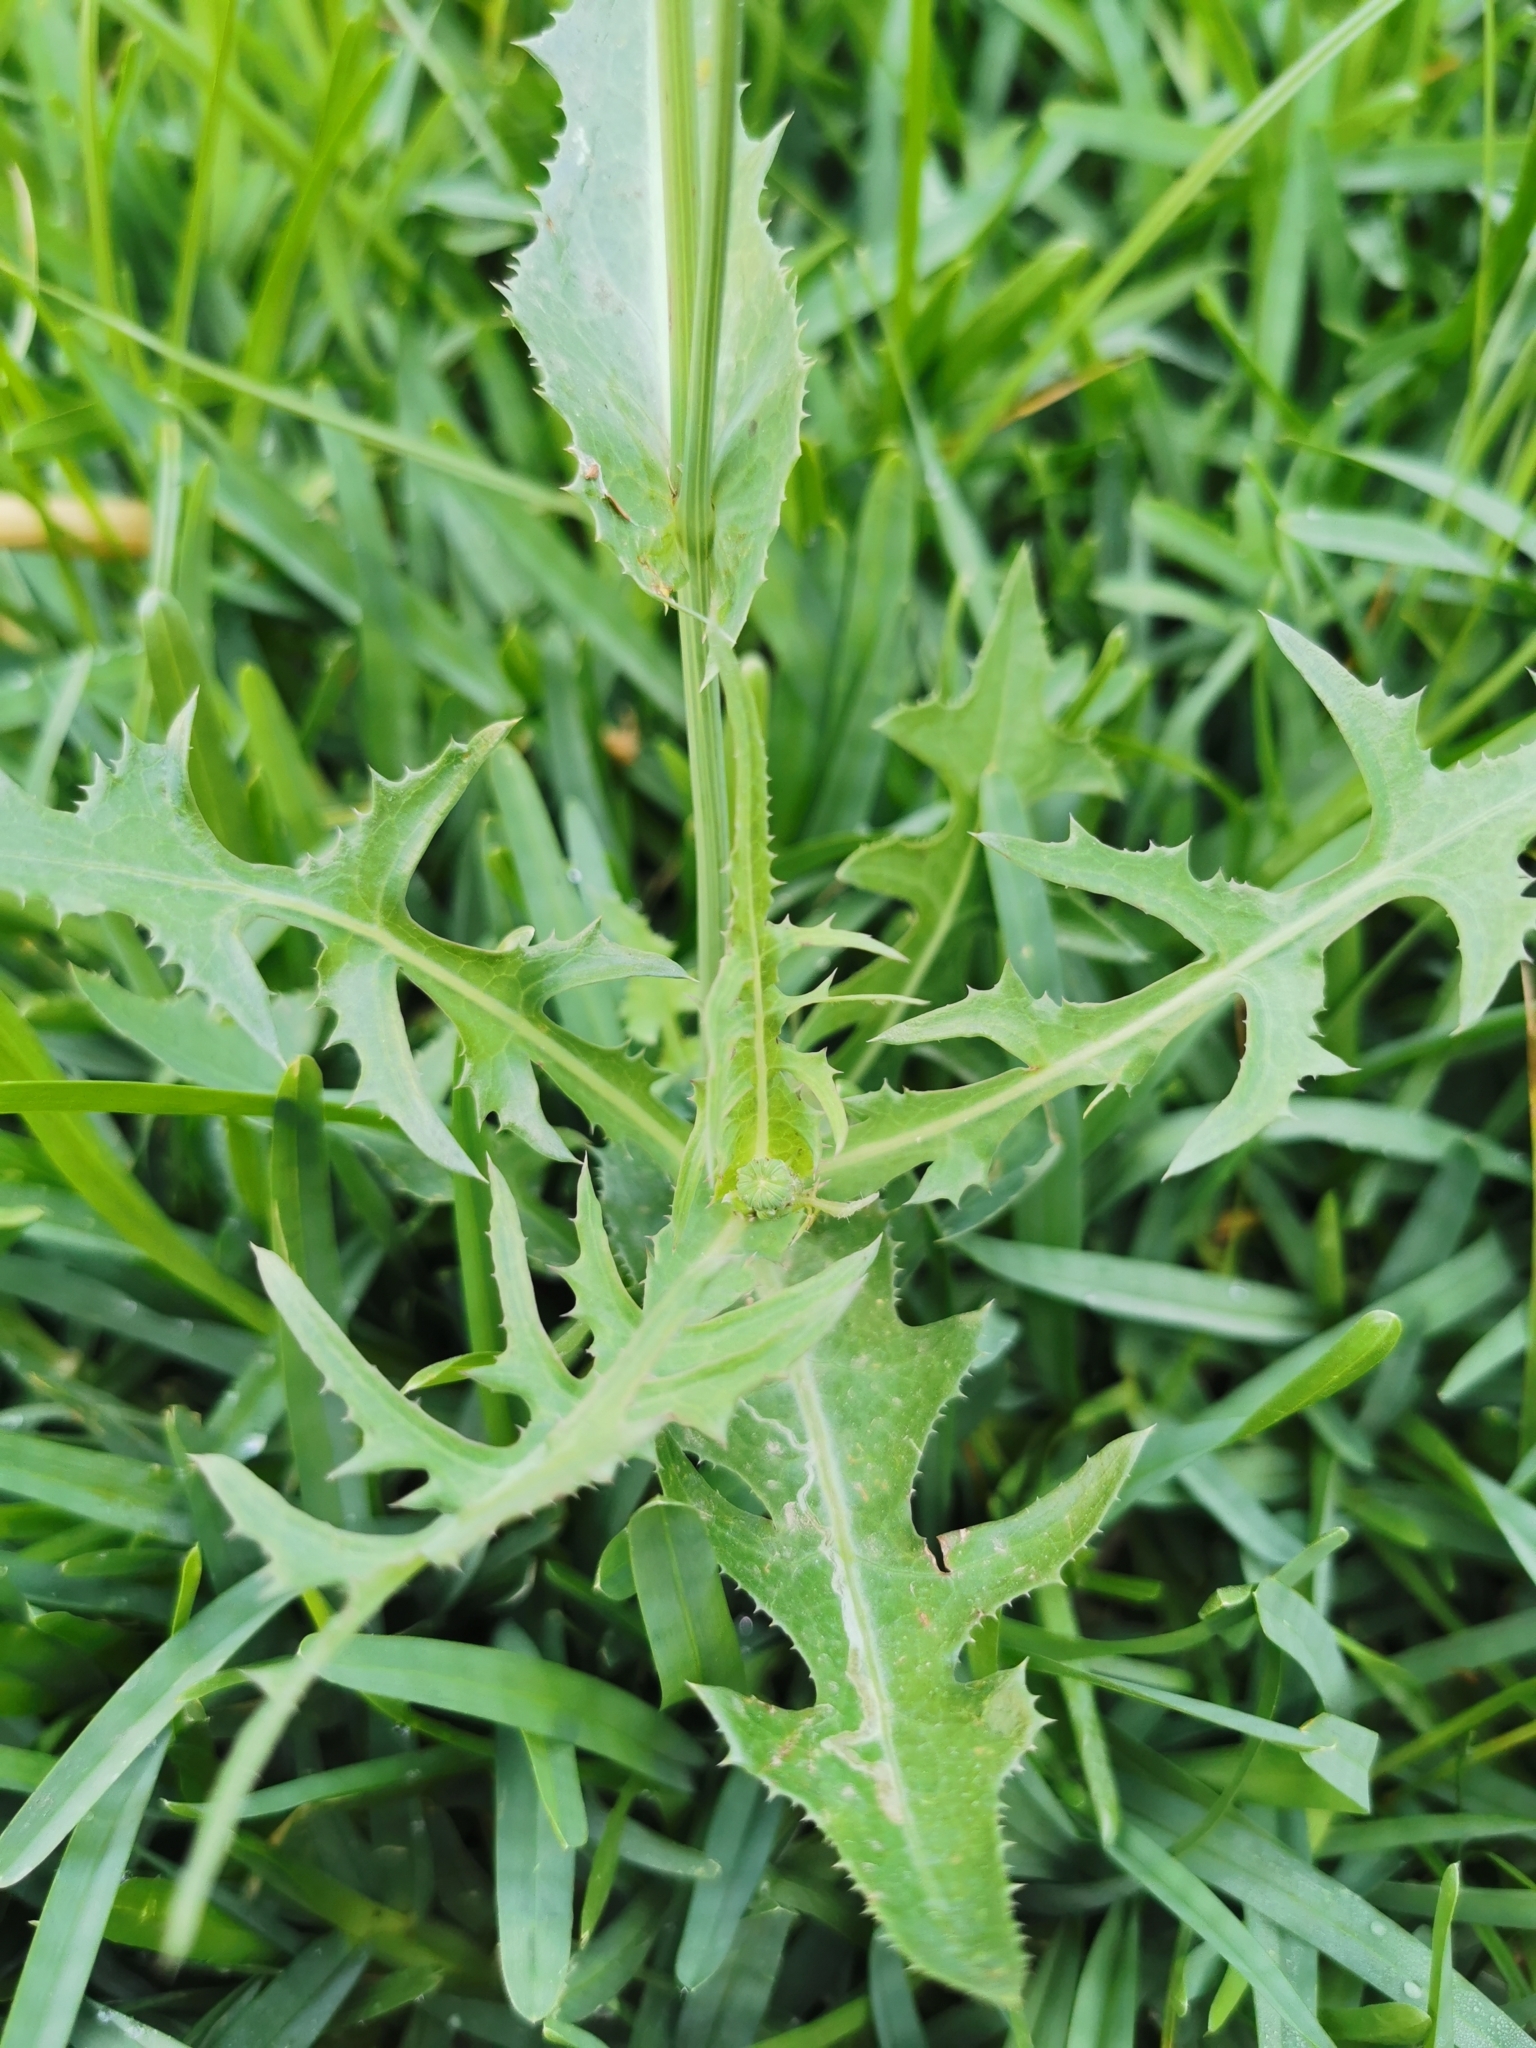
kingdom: Plantae
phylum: Tracheophyta
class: Magnoliopsida
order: Asterales
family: Asteraceae
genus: Sonchus
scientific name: Sonchus oleraceus
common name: Common sowthistle
